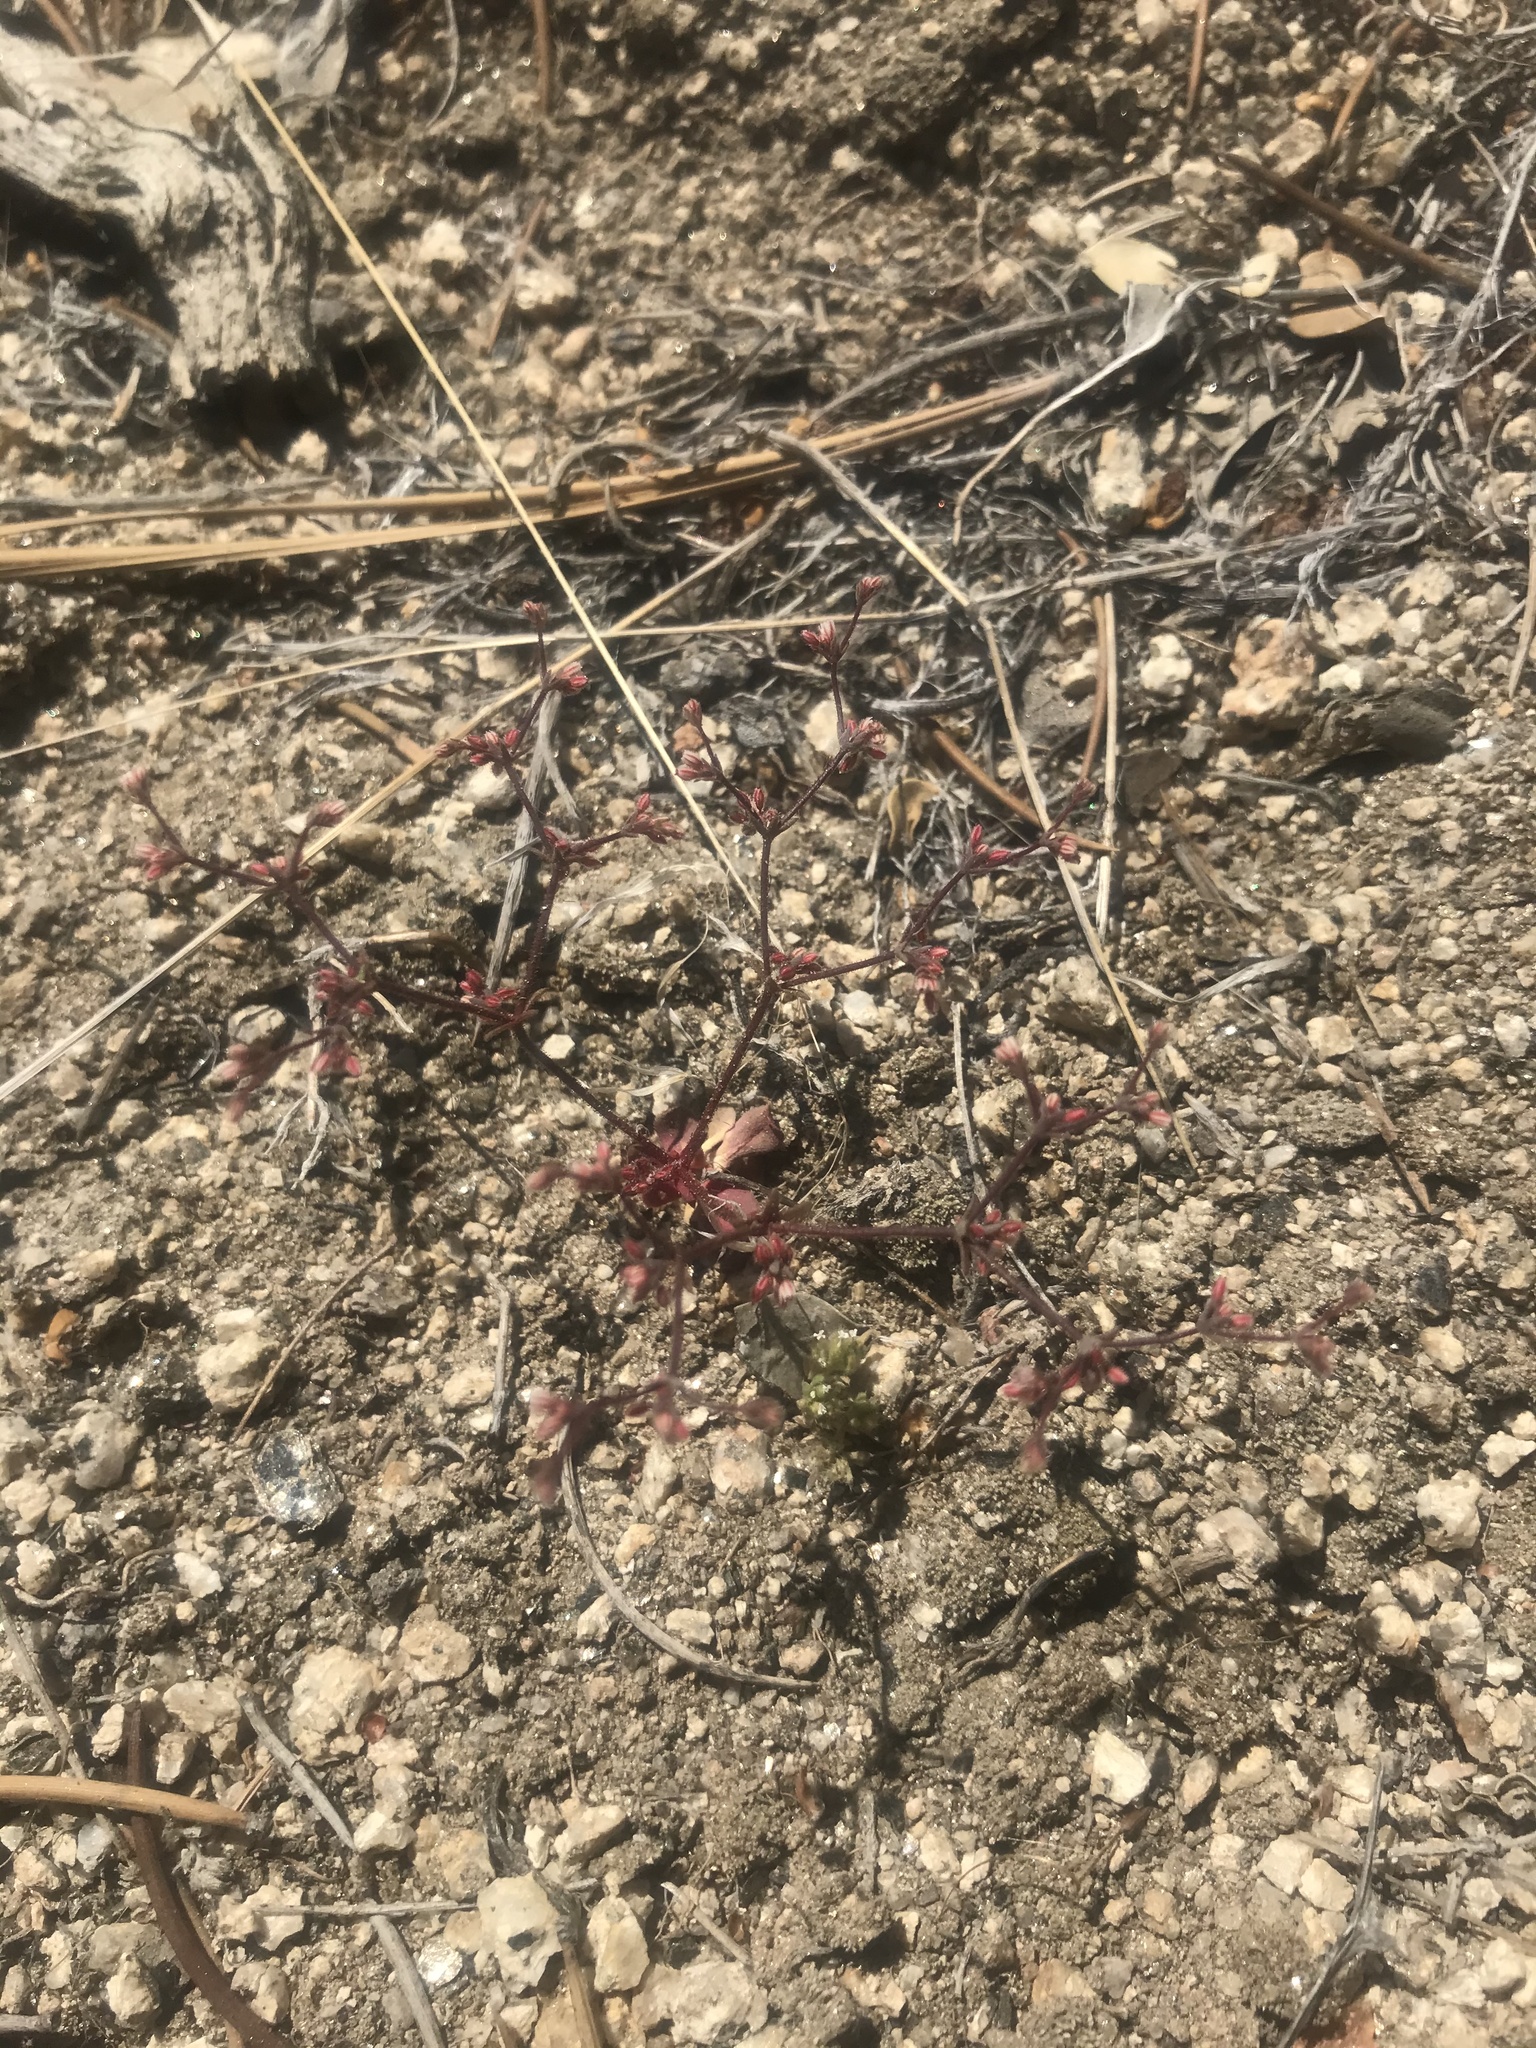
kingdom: Plantae
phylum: Tracheophyta
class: Magnoliopsida
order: Caryophyllales
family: Polygonaceae
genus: Eriogonum
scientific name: Eriogonum inerme
